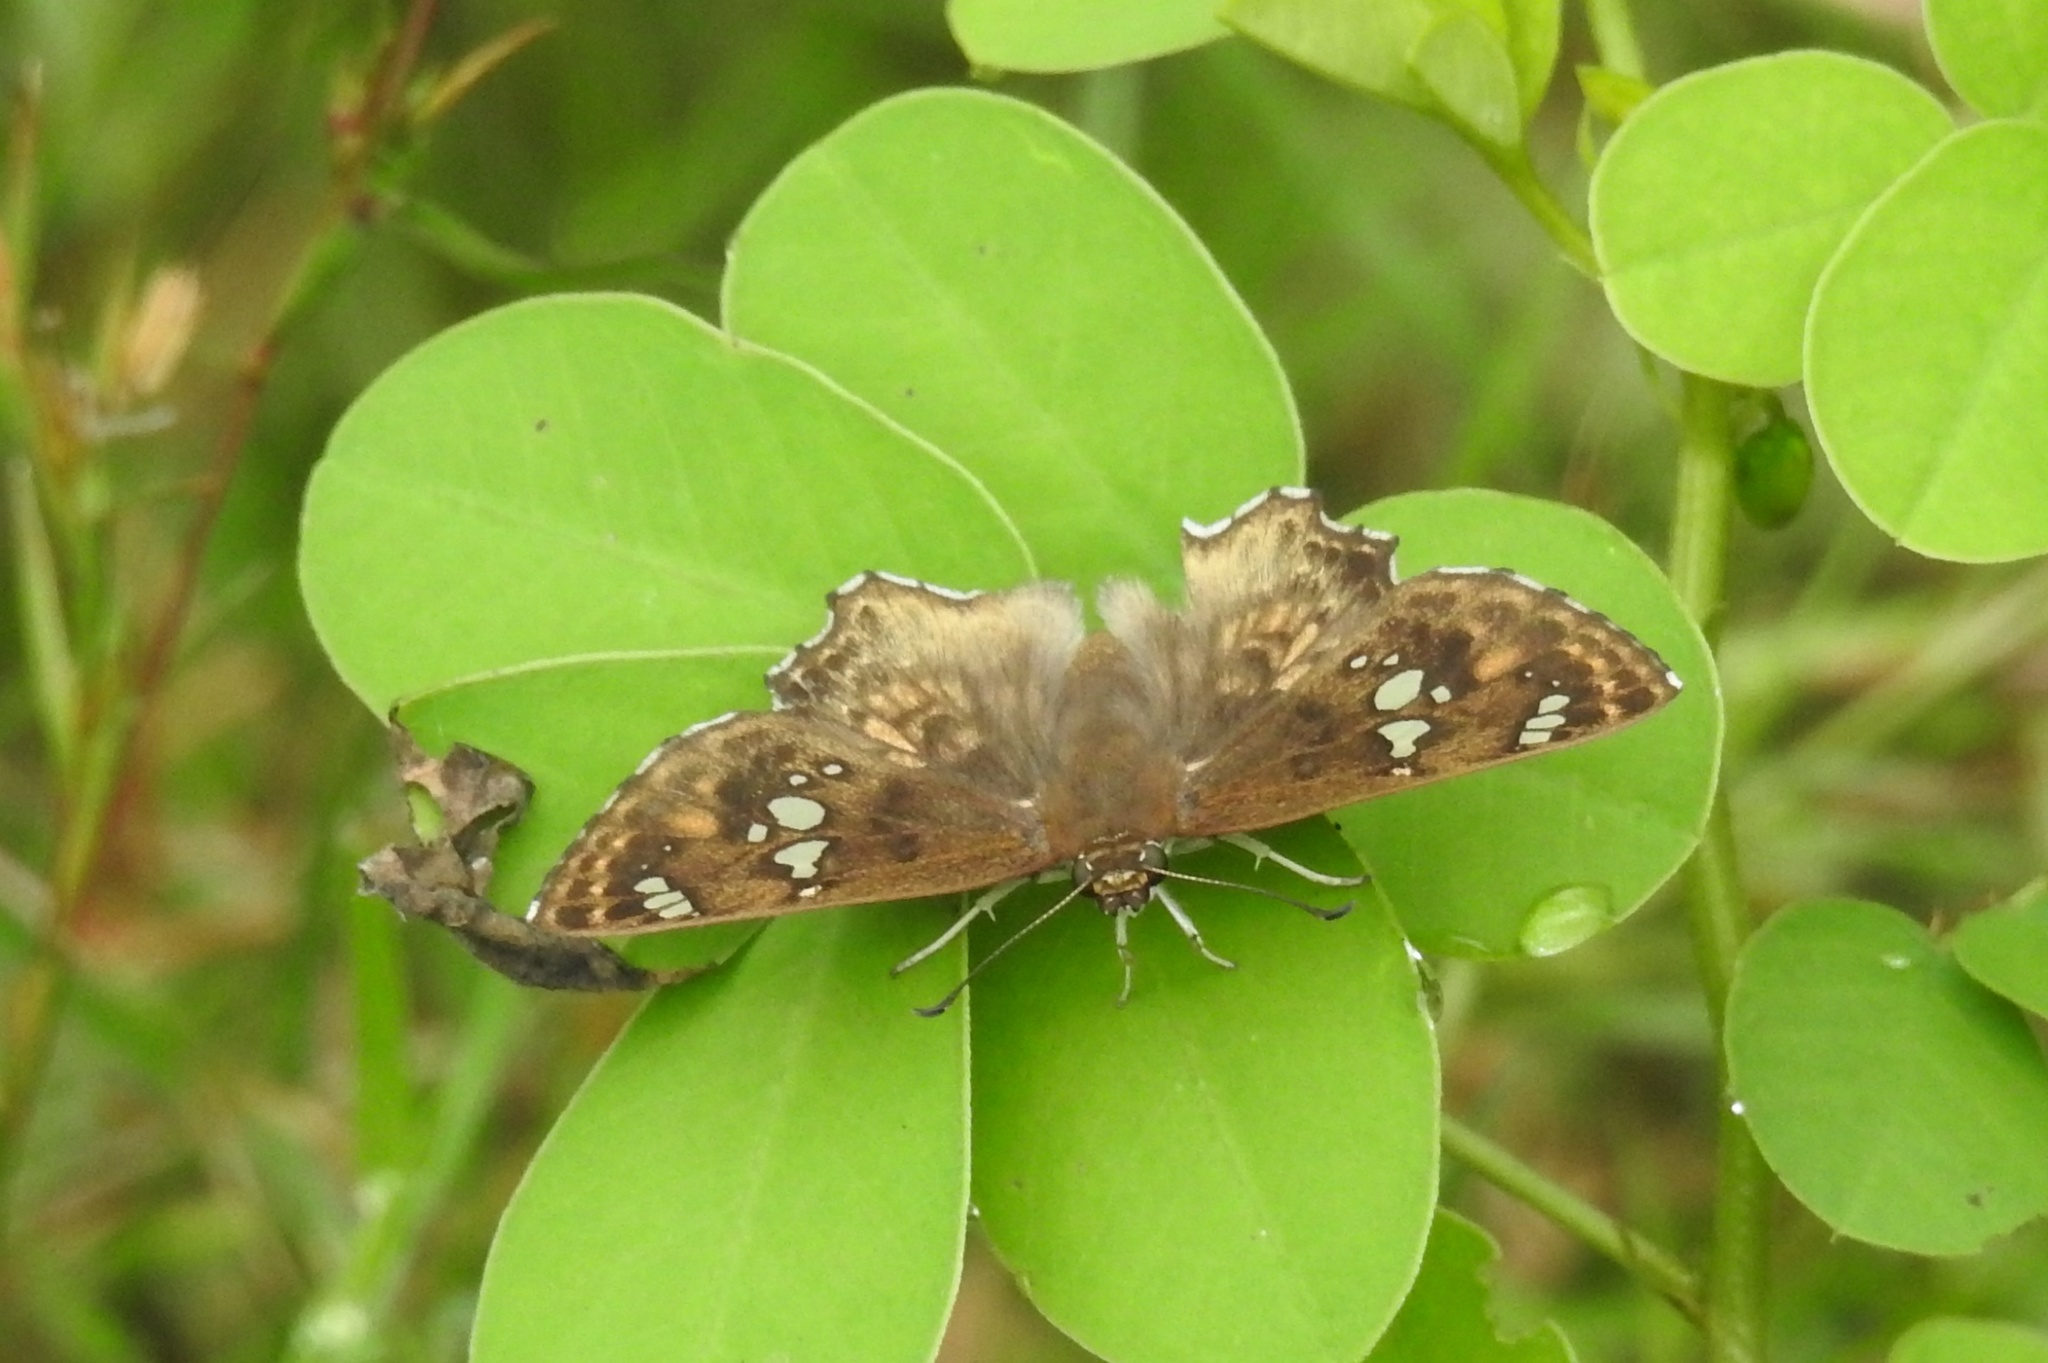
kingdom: Animalia
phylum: Arthropoda
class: Insecta
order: Lepidoptera
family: Hesperiidae
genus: Caprona
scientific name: Caprona ransonnettii
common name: Golden angle
